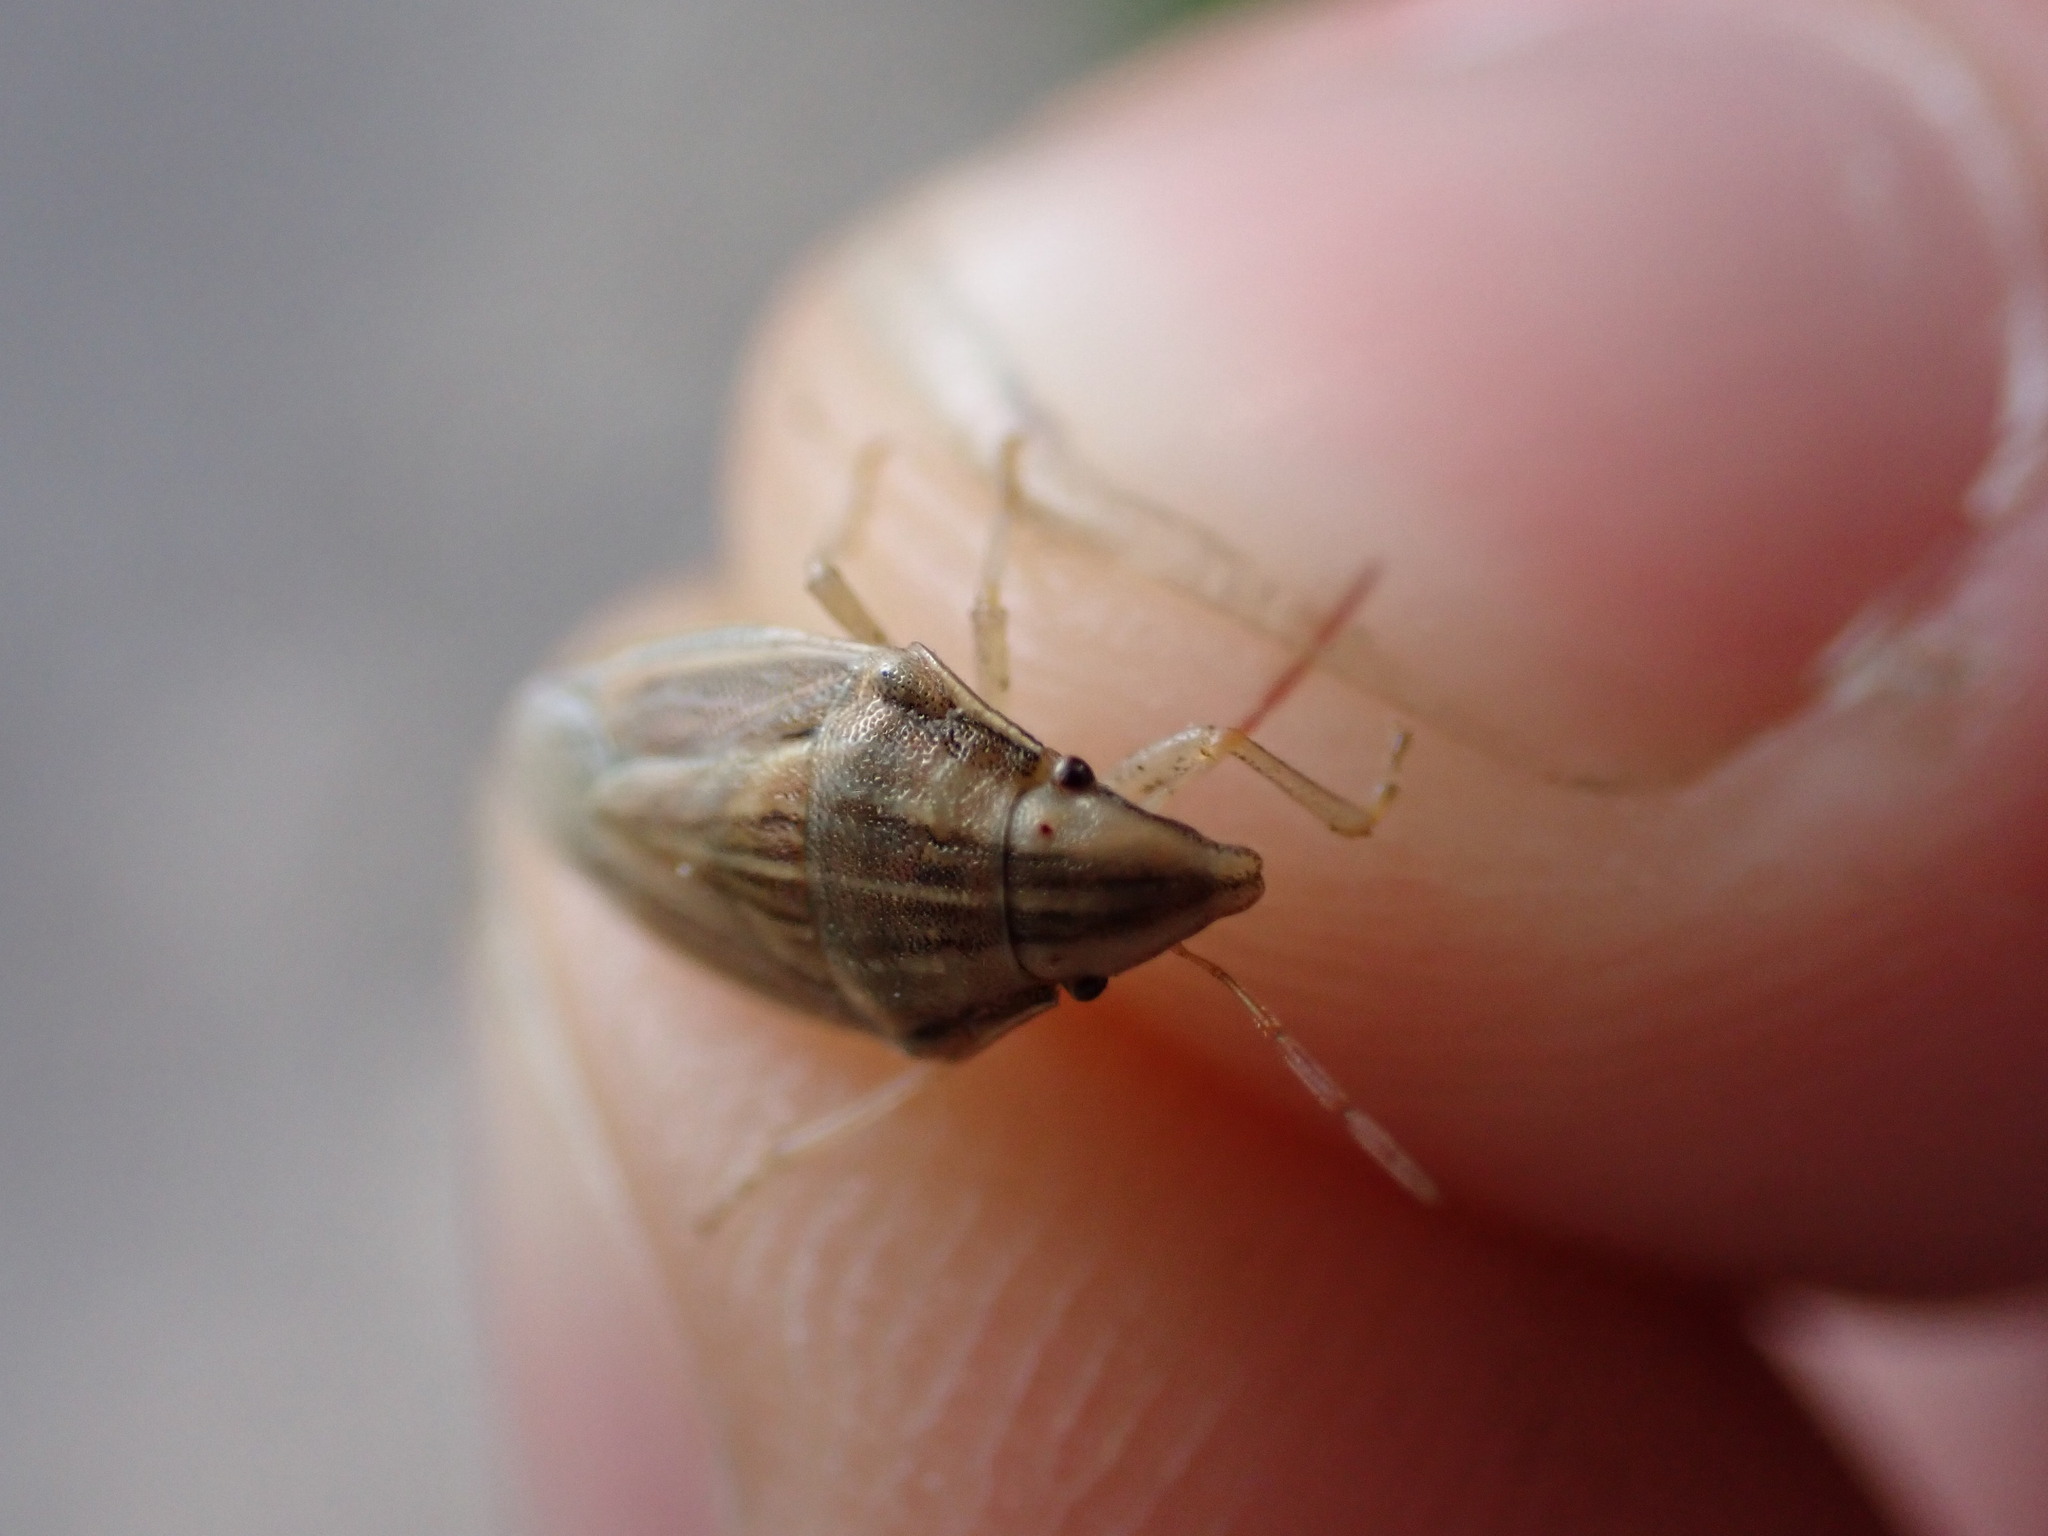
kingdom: Animalia
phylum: Arthropoda
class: Insecta
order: Hemiptera
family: Pentatomidae
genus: Aelia
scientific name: Aelia acuminata
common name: Bishop's mitre
